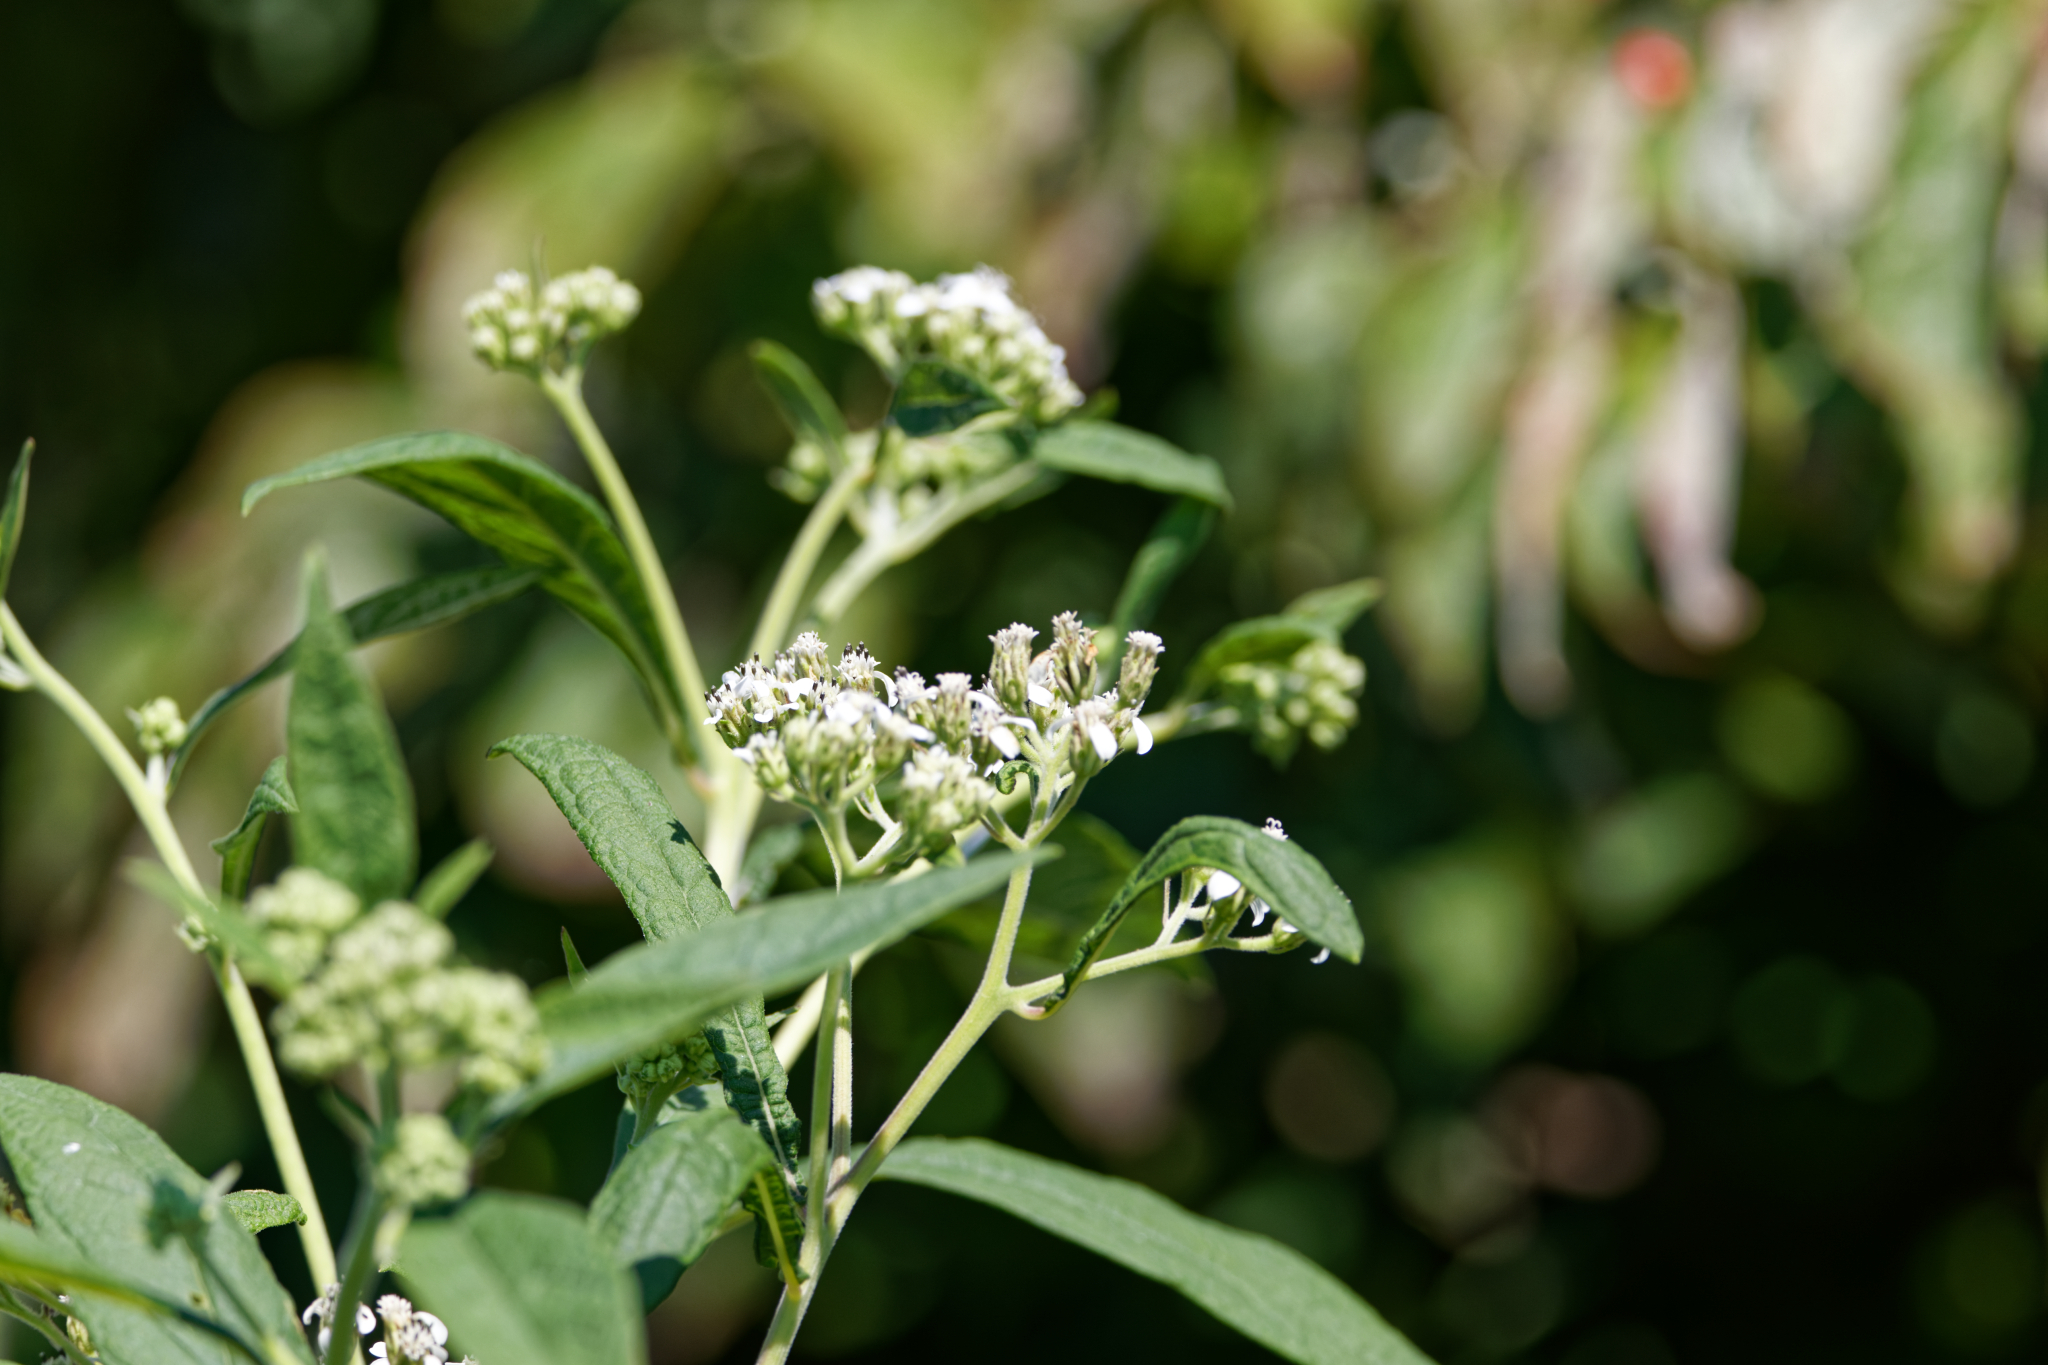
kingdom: Plantae
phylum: Tracheophyta
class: Magnoliopsida
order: Asterales
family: Asteraceae
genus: Verbesina
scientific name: Verbesina virginica
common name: Frostweed
